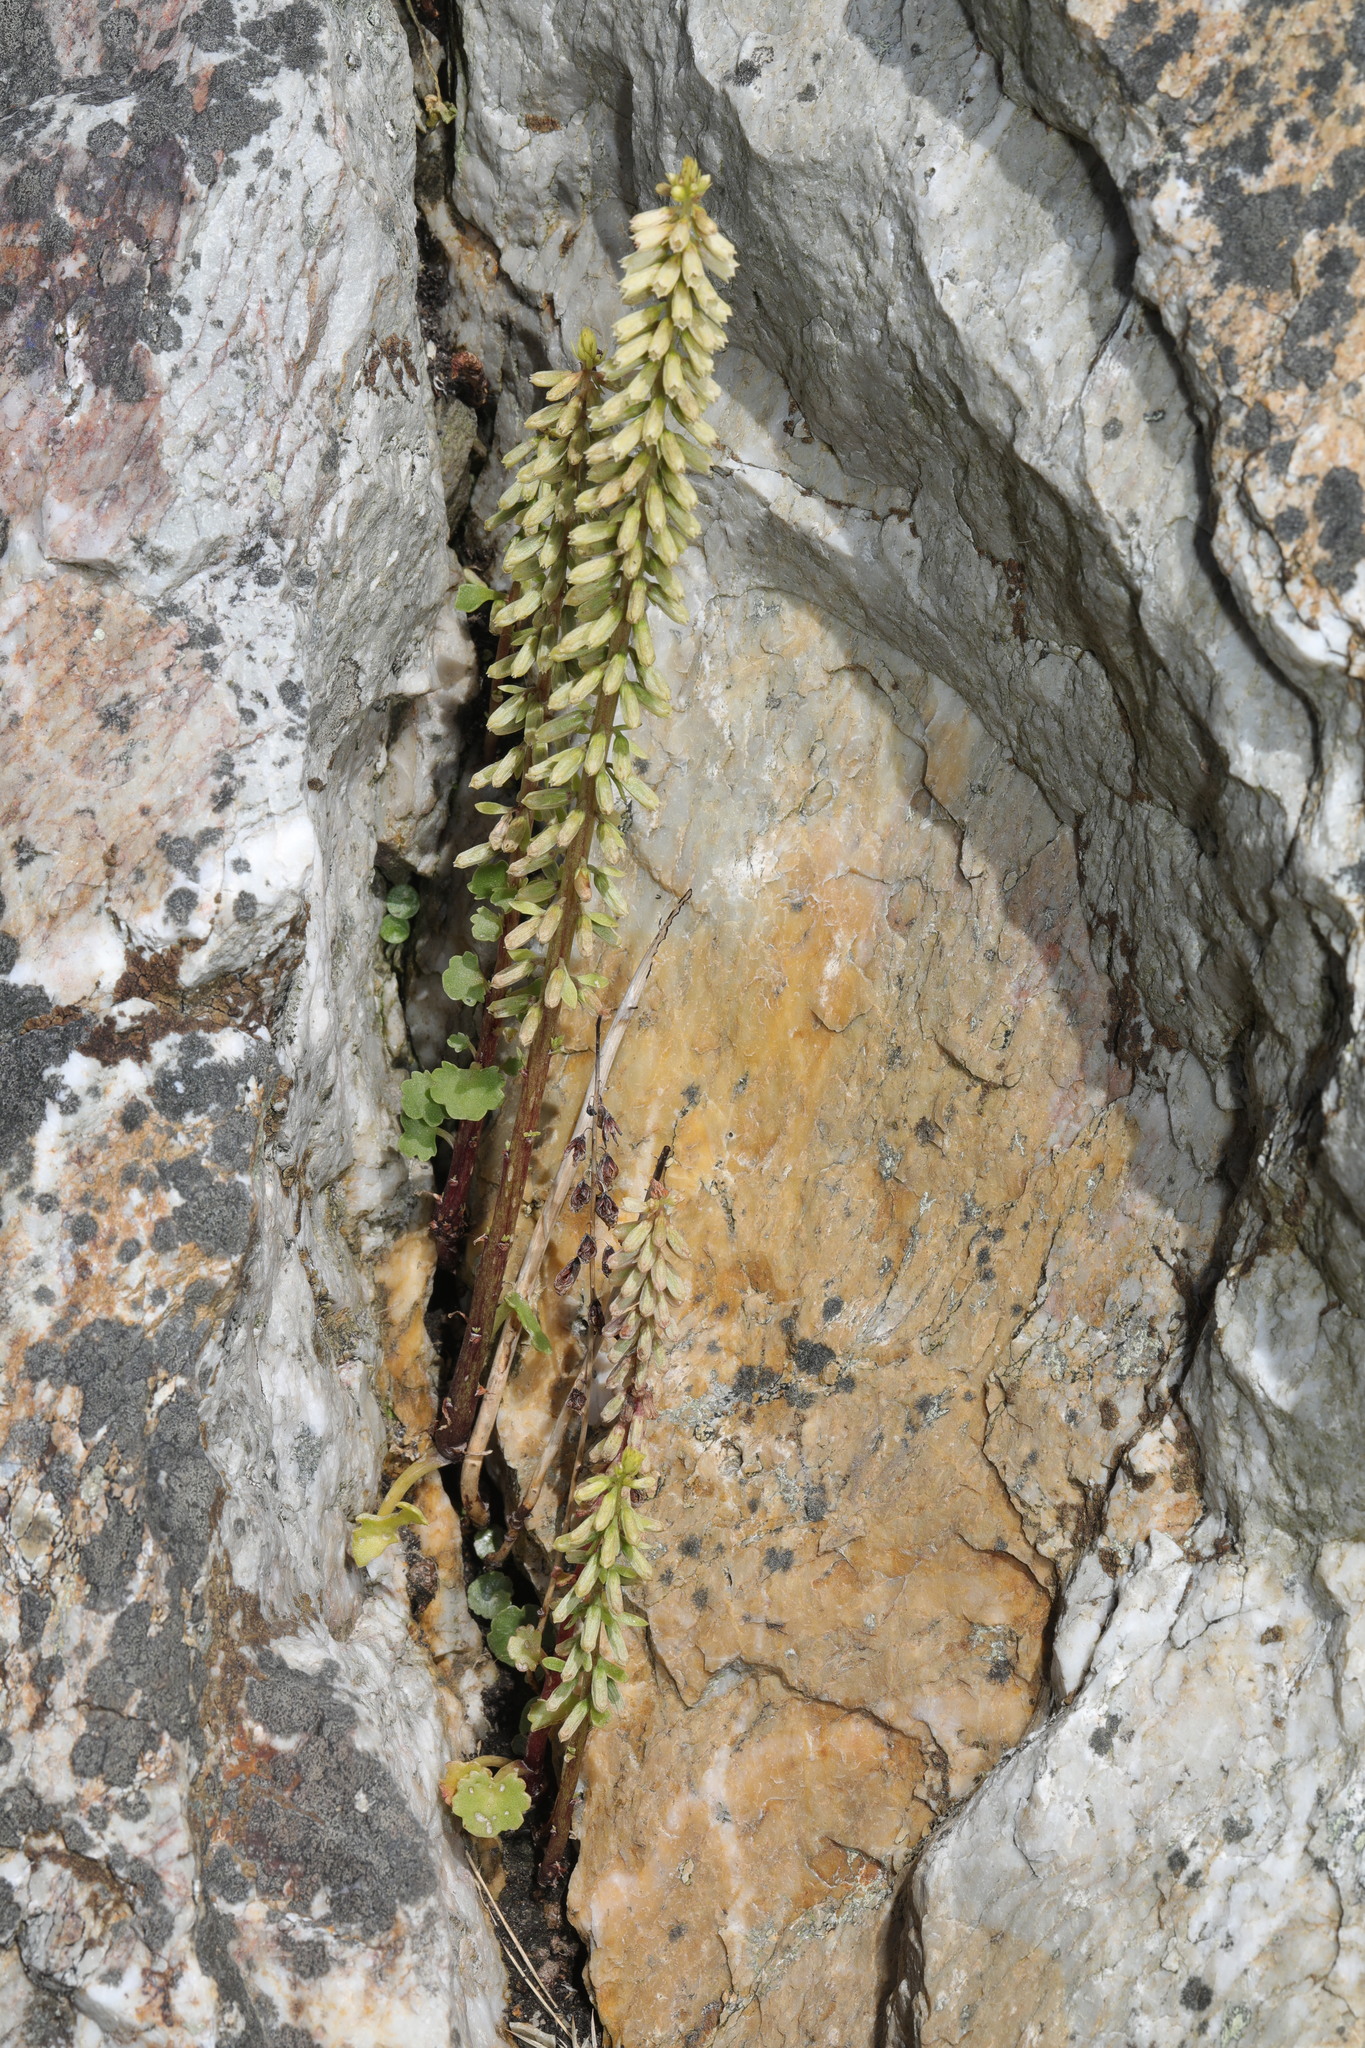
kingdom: Plantae
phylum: Tracheophyta
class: Magnoliopsida
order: Saxifragales
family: Crassulaceae
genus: Umbilicus
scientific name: Umbilicus rupestris
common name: Navelwort
